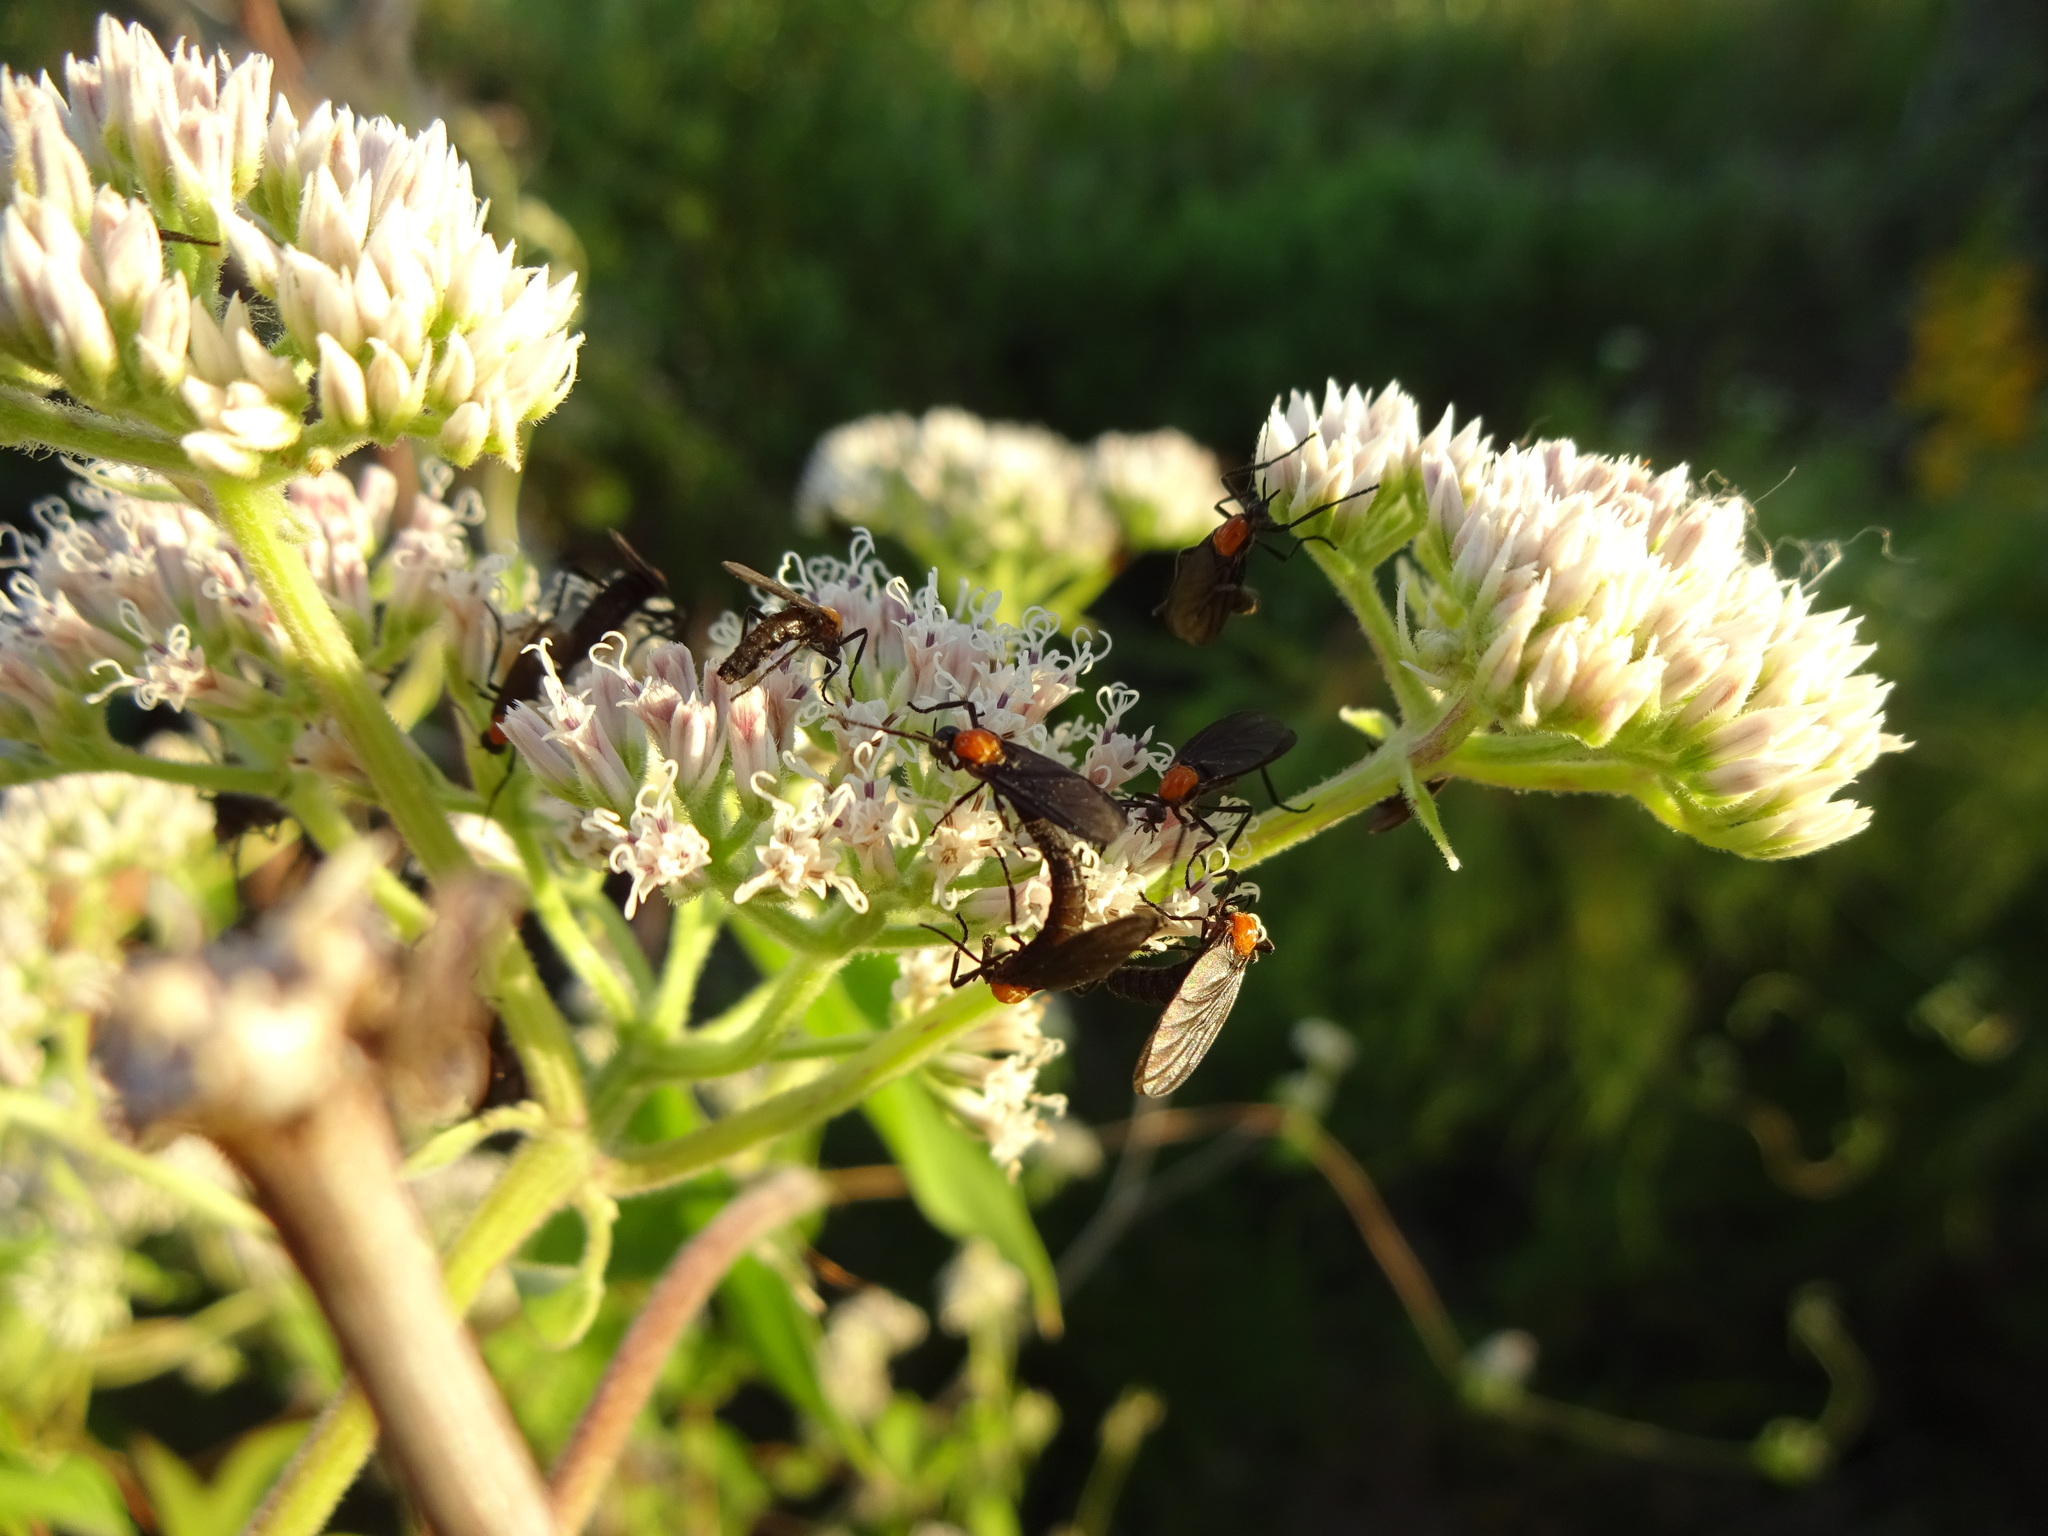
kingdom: Animalia
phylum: Arthropoda
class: Insecta
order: Diptera
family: Bibionidae
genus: Plecia
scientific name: Plecia nearctica
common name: March fly
